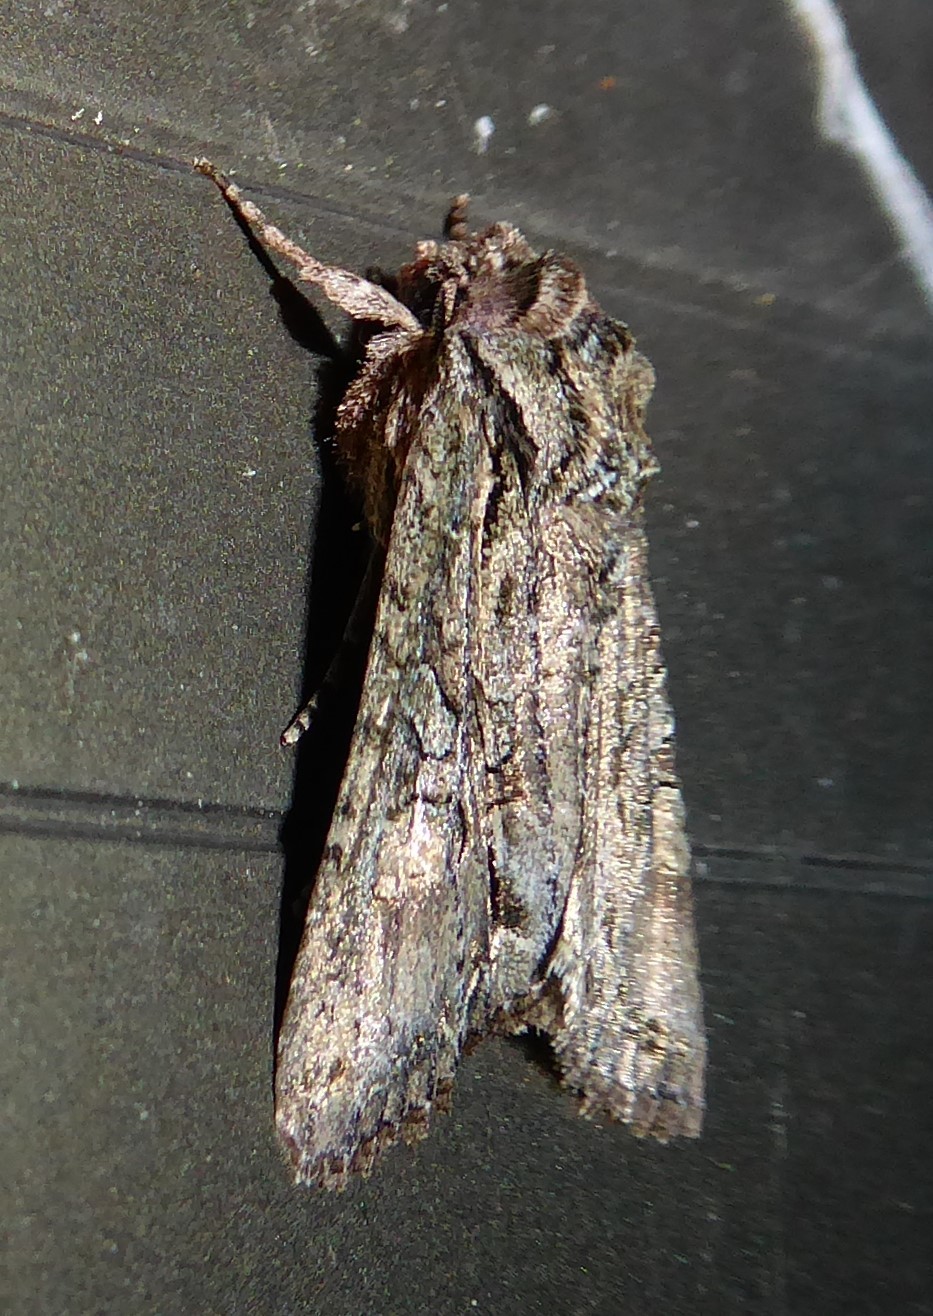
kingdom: Animalia
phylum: Arthropoda
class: Insecta
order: Lepidoptera
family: Noctuidae
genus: Ichneutica
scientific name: Ichneutica mutans
